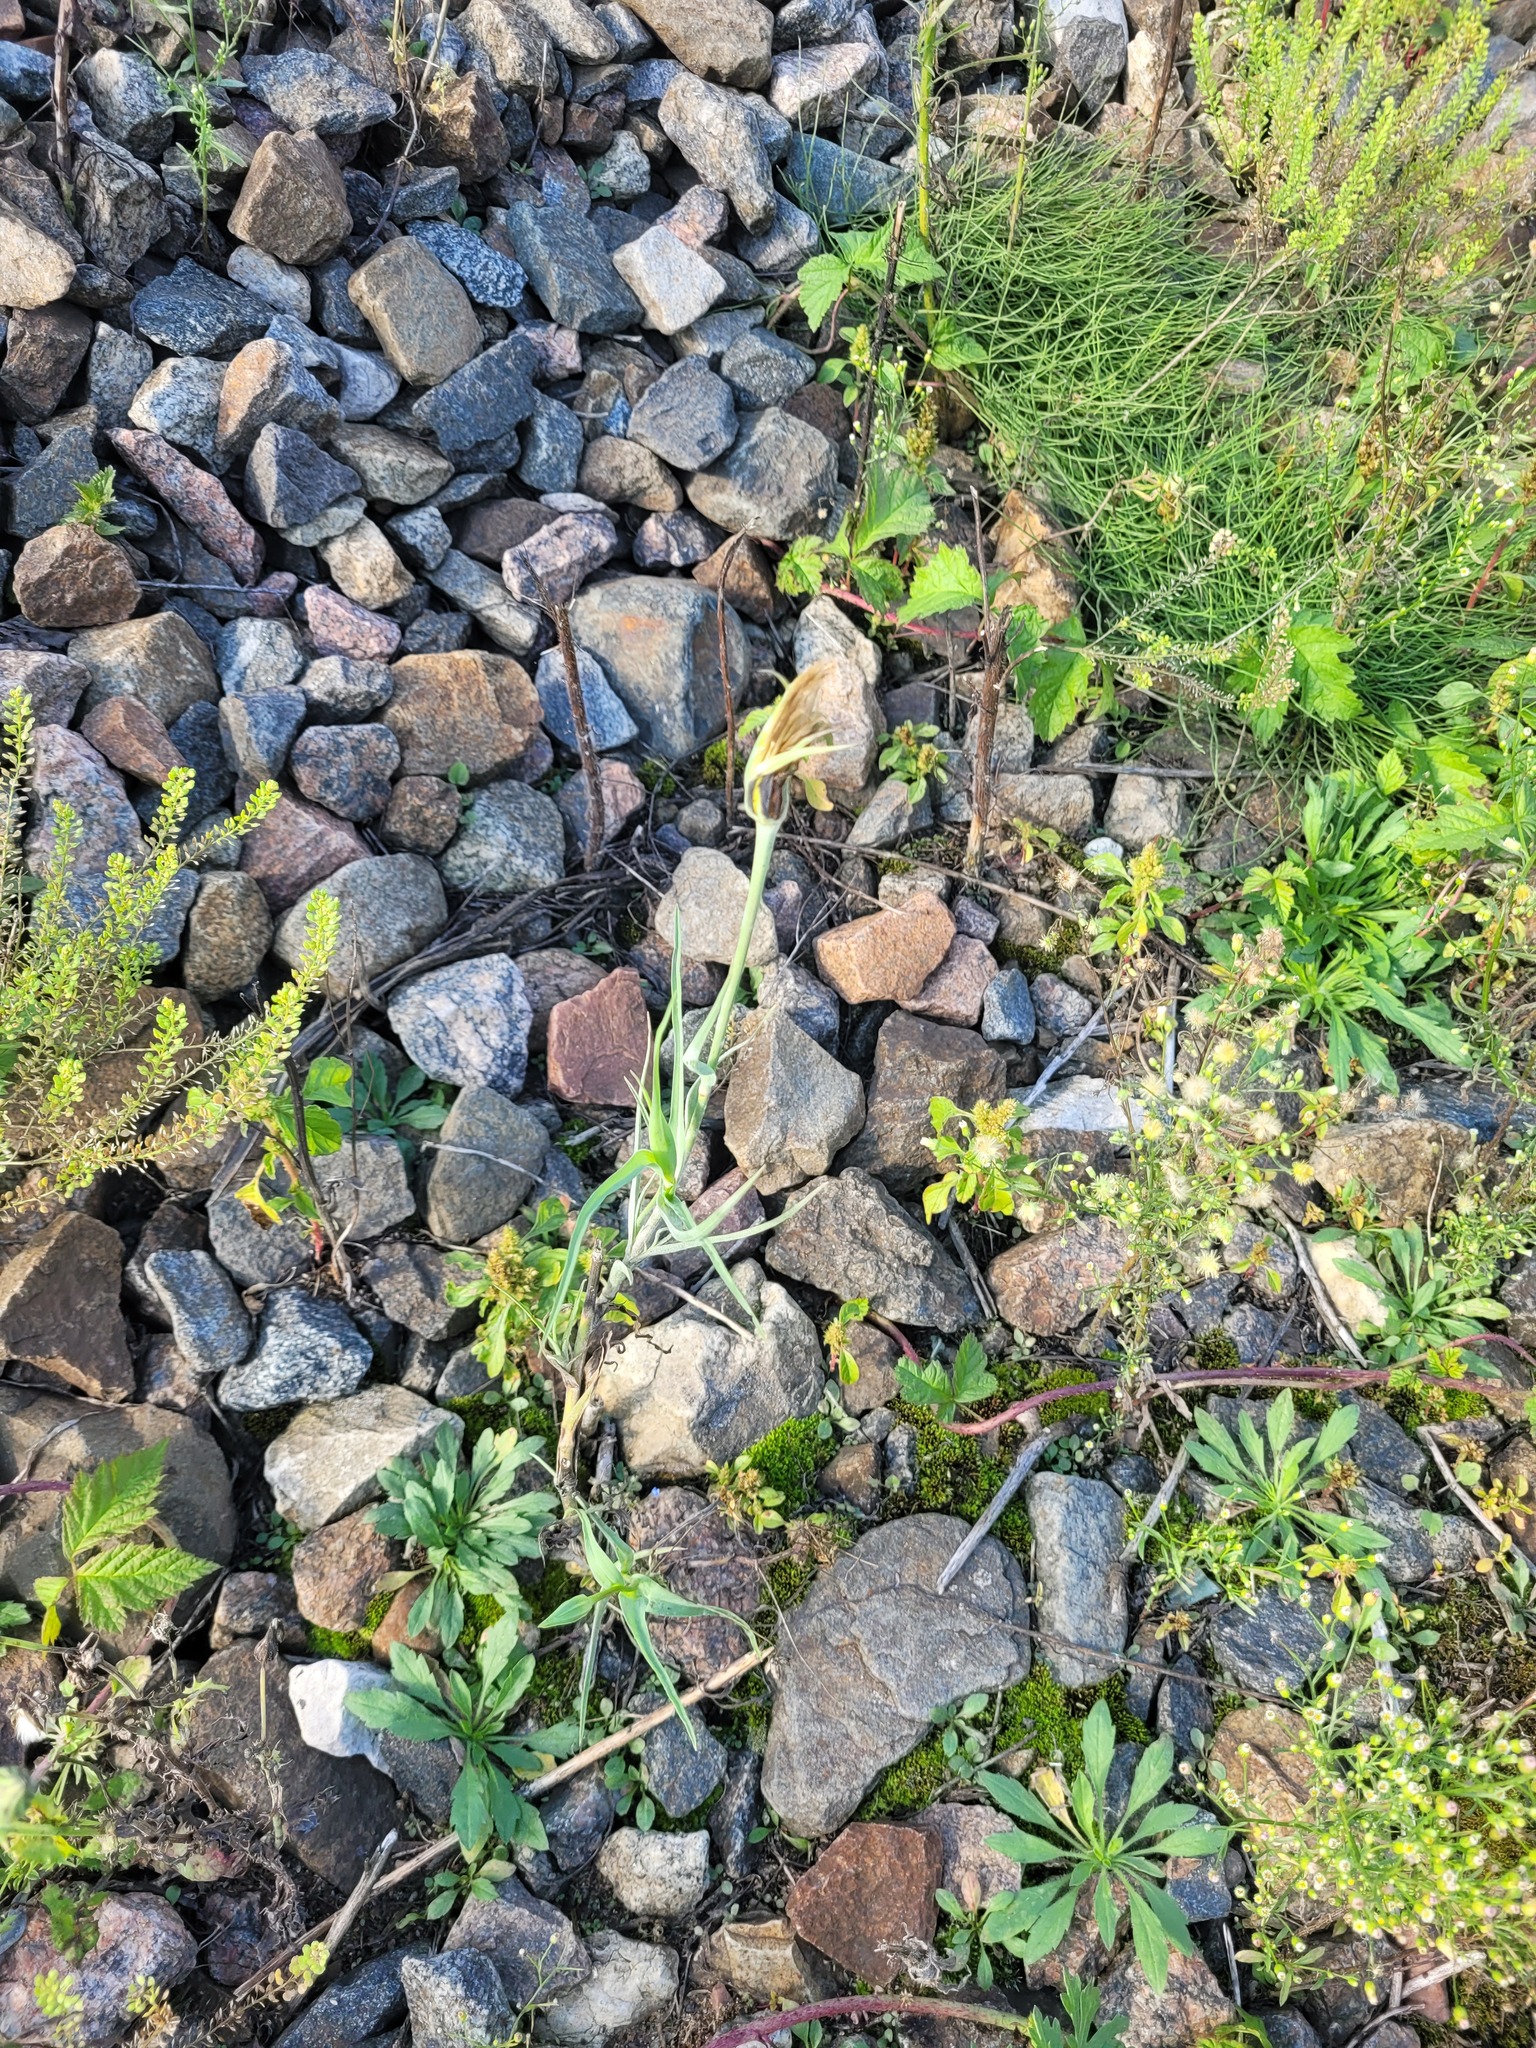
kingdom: Plantae
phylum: Tracheophyta
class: Magnoliopsida
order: Asterales
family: Asteraceae
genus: Tragopogon
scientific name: Tragopogon dubius
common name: Yellow salsify
